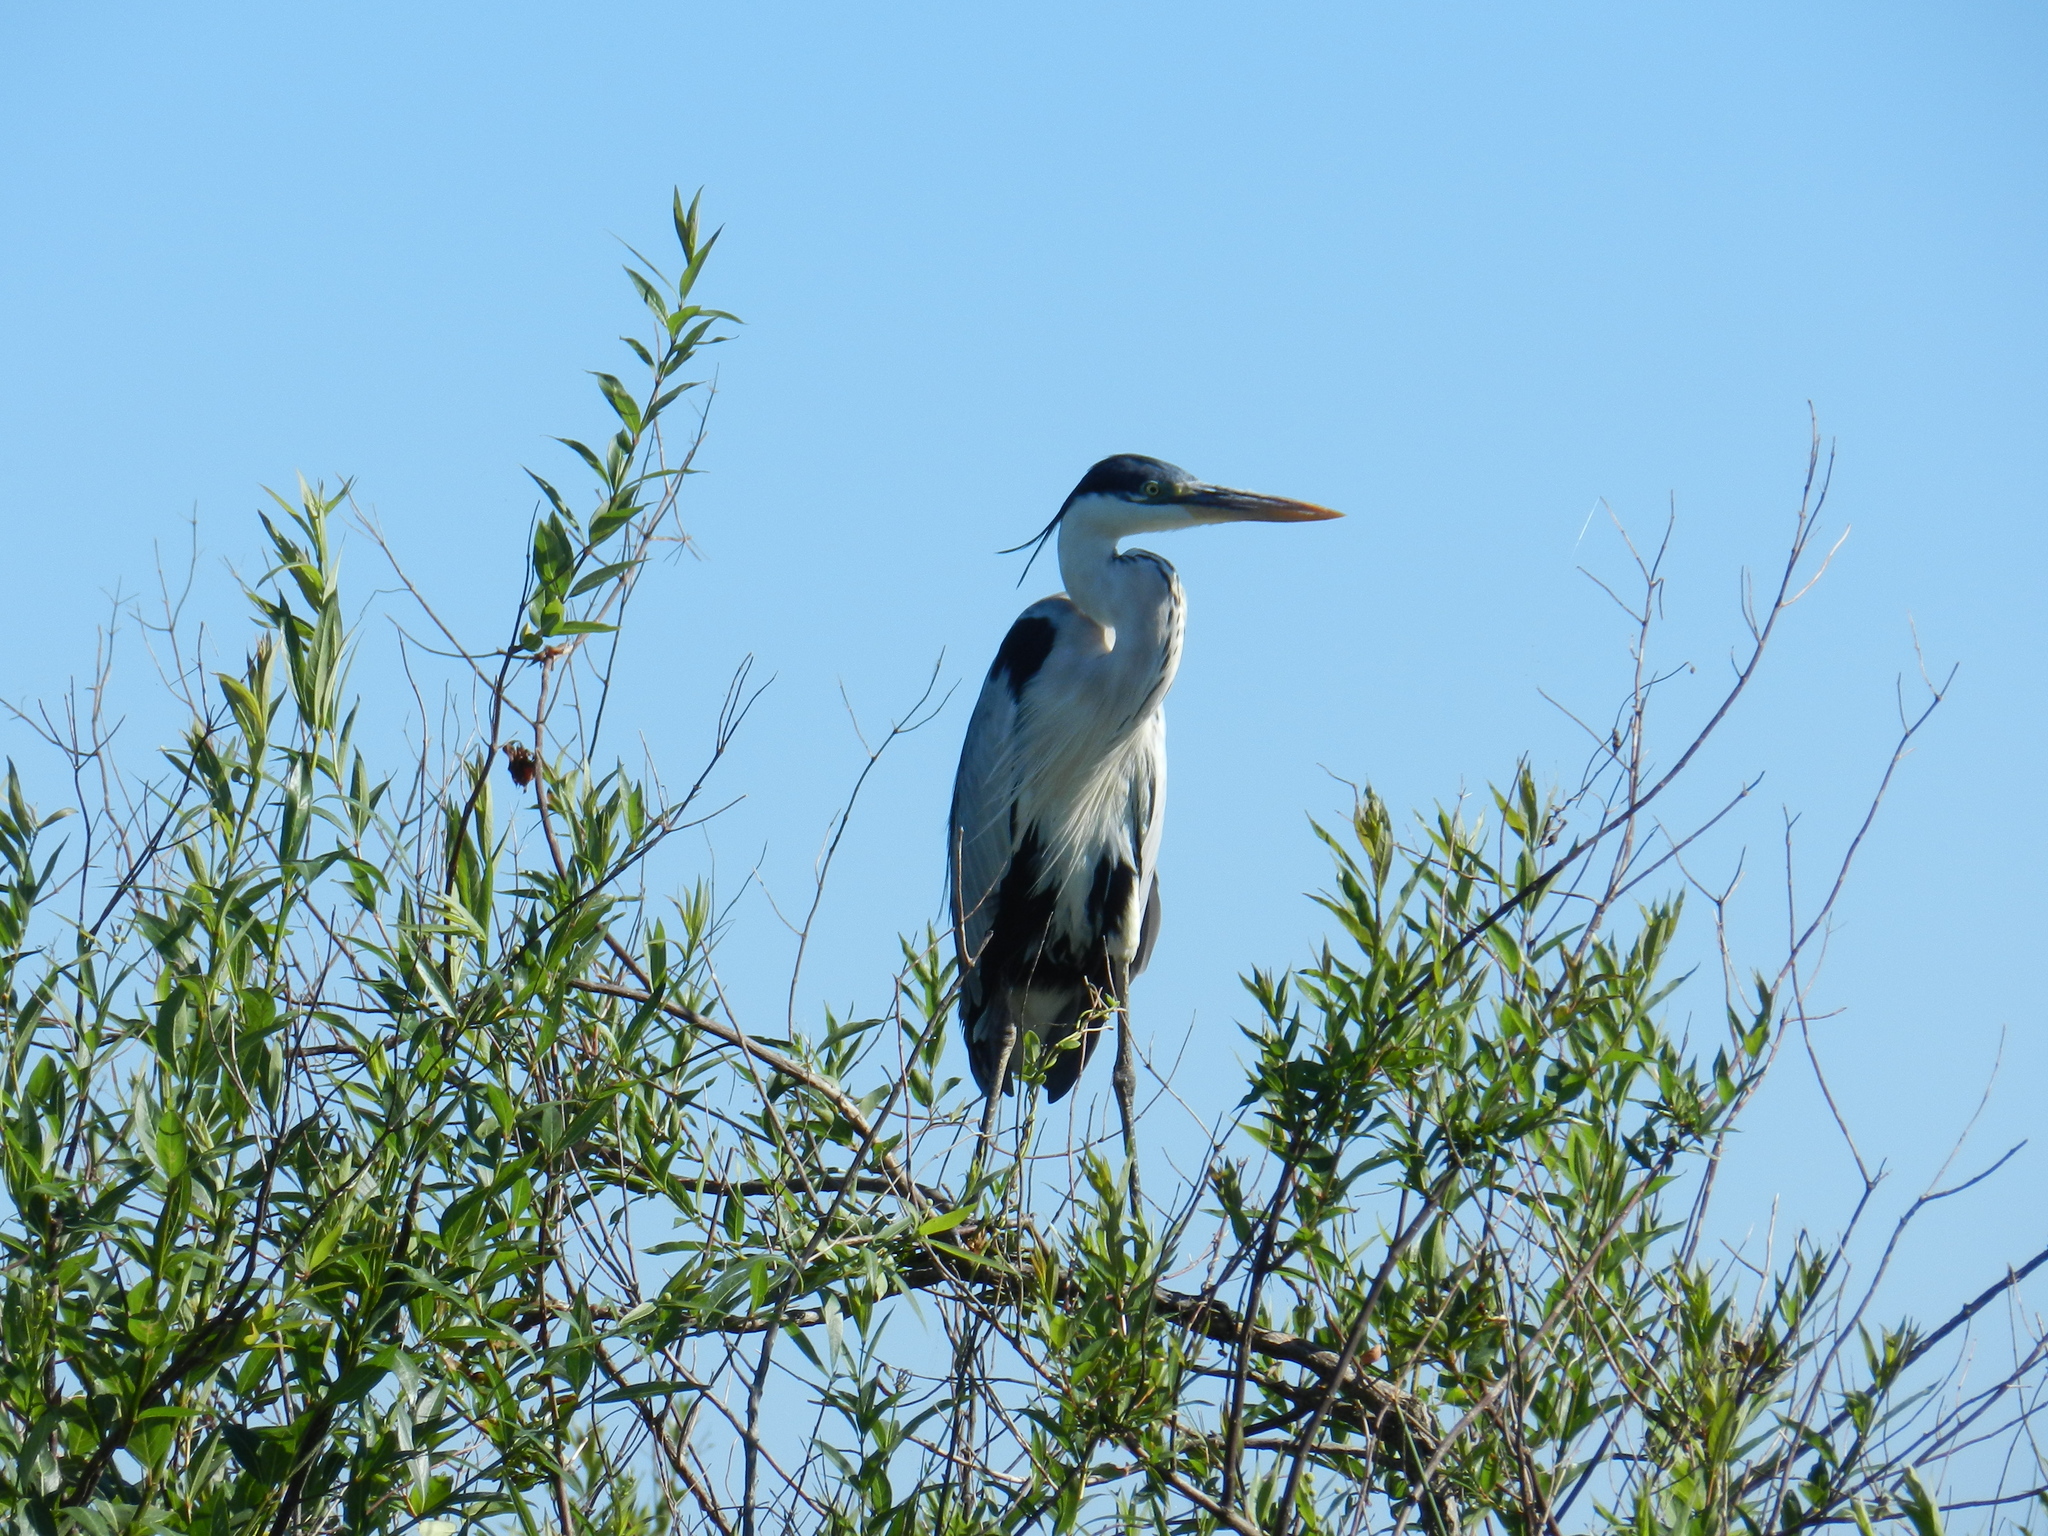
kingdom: Animalia
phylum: Chordata
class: Aves
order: Pelecaniformes
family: Ardeidae
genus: Ardea
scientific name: Ardea cocoi
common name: Cocoi heron
